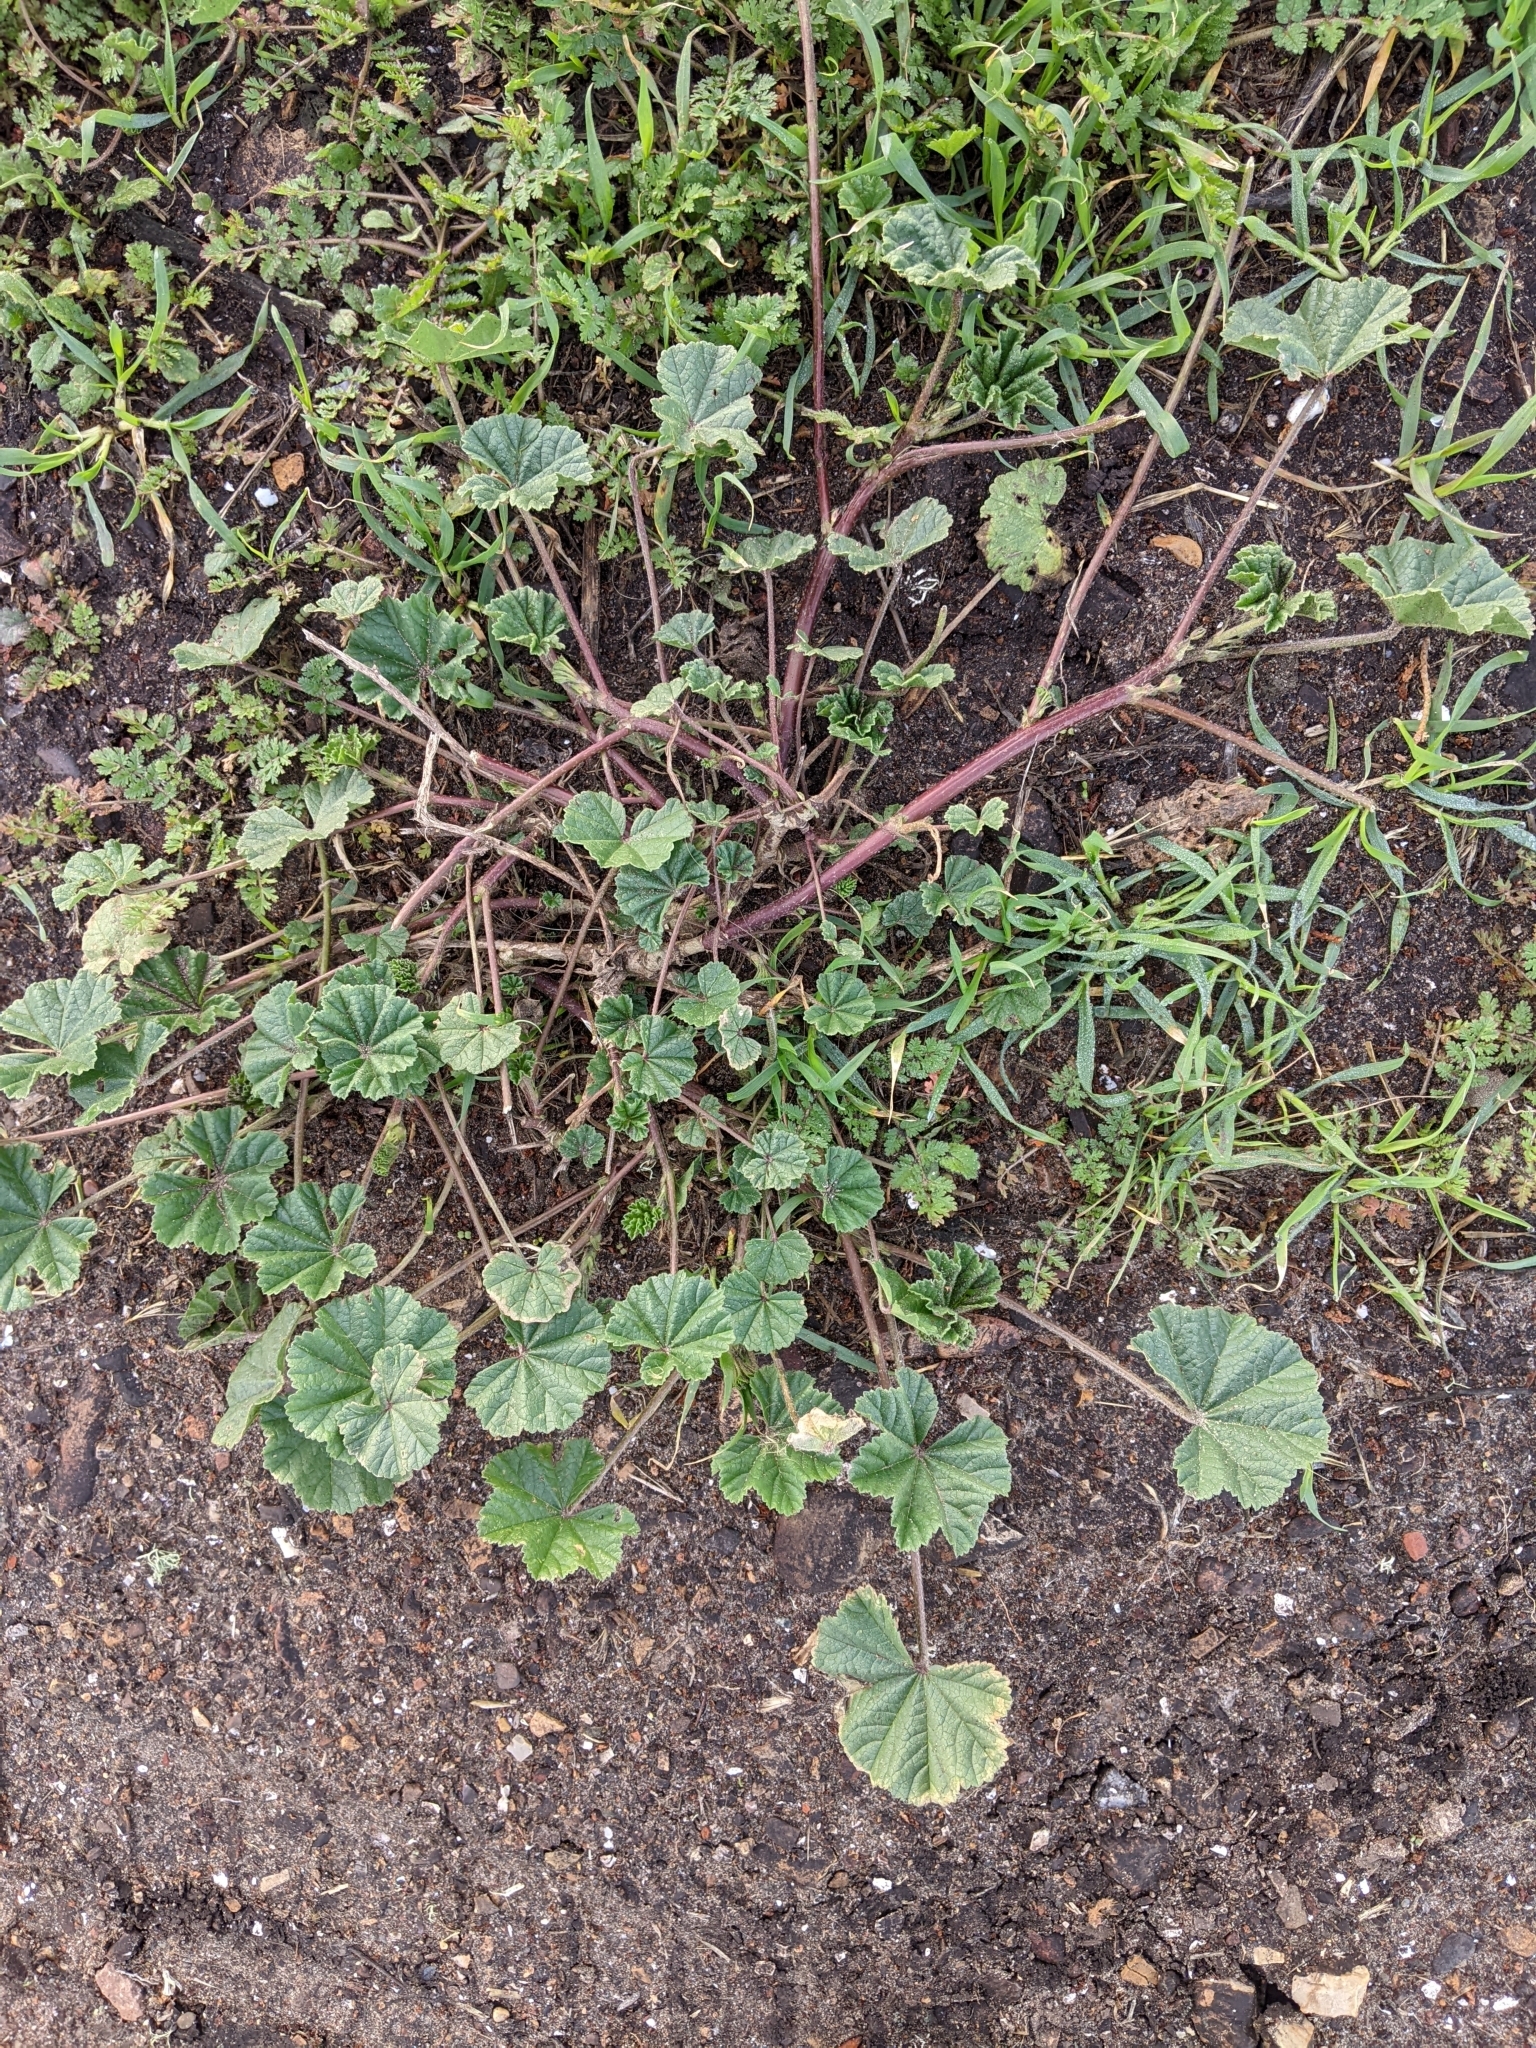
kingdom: Plantae
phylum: Tracheophyta
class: Magnoliopsida
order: Malvales
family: Malvaceae
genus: Malva
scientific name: Malva
